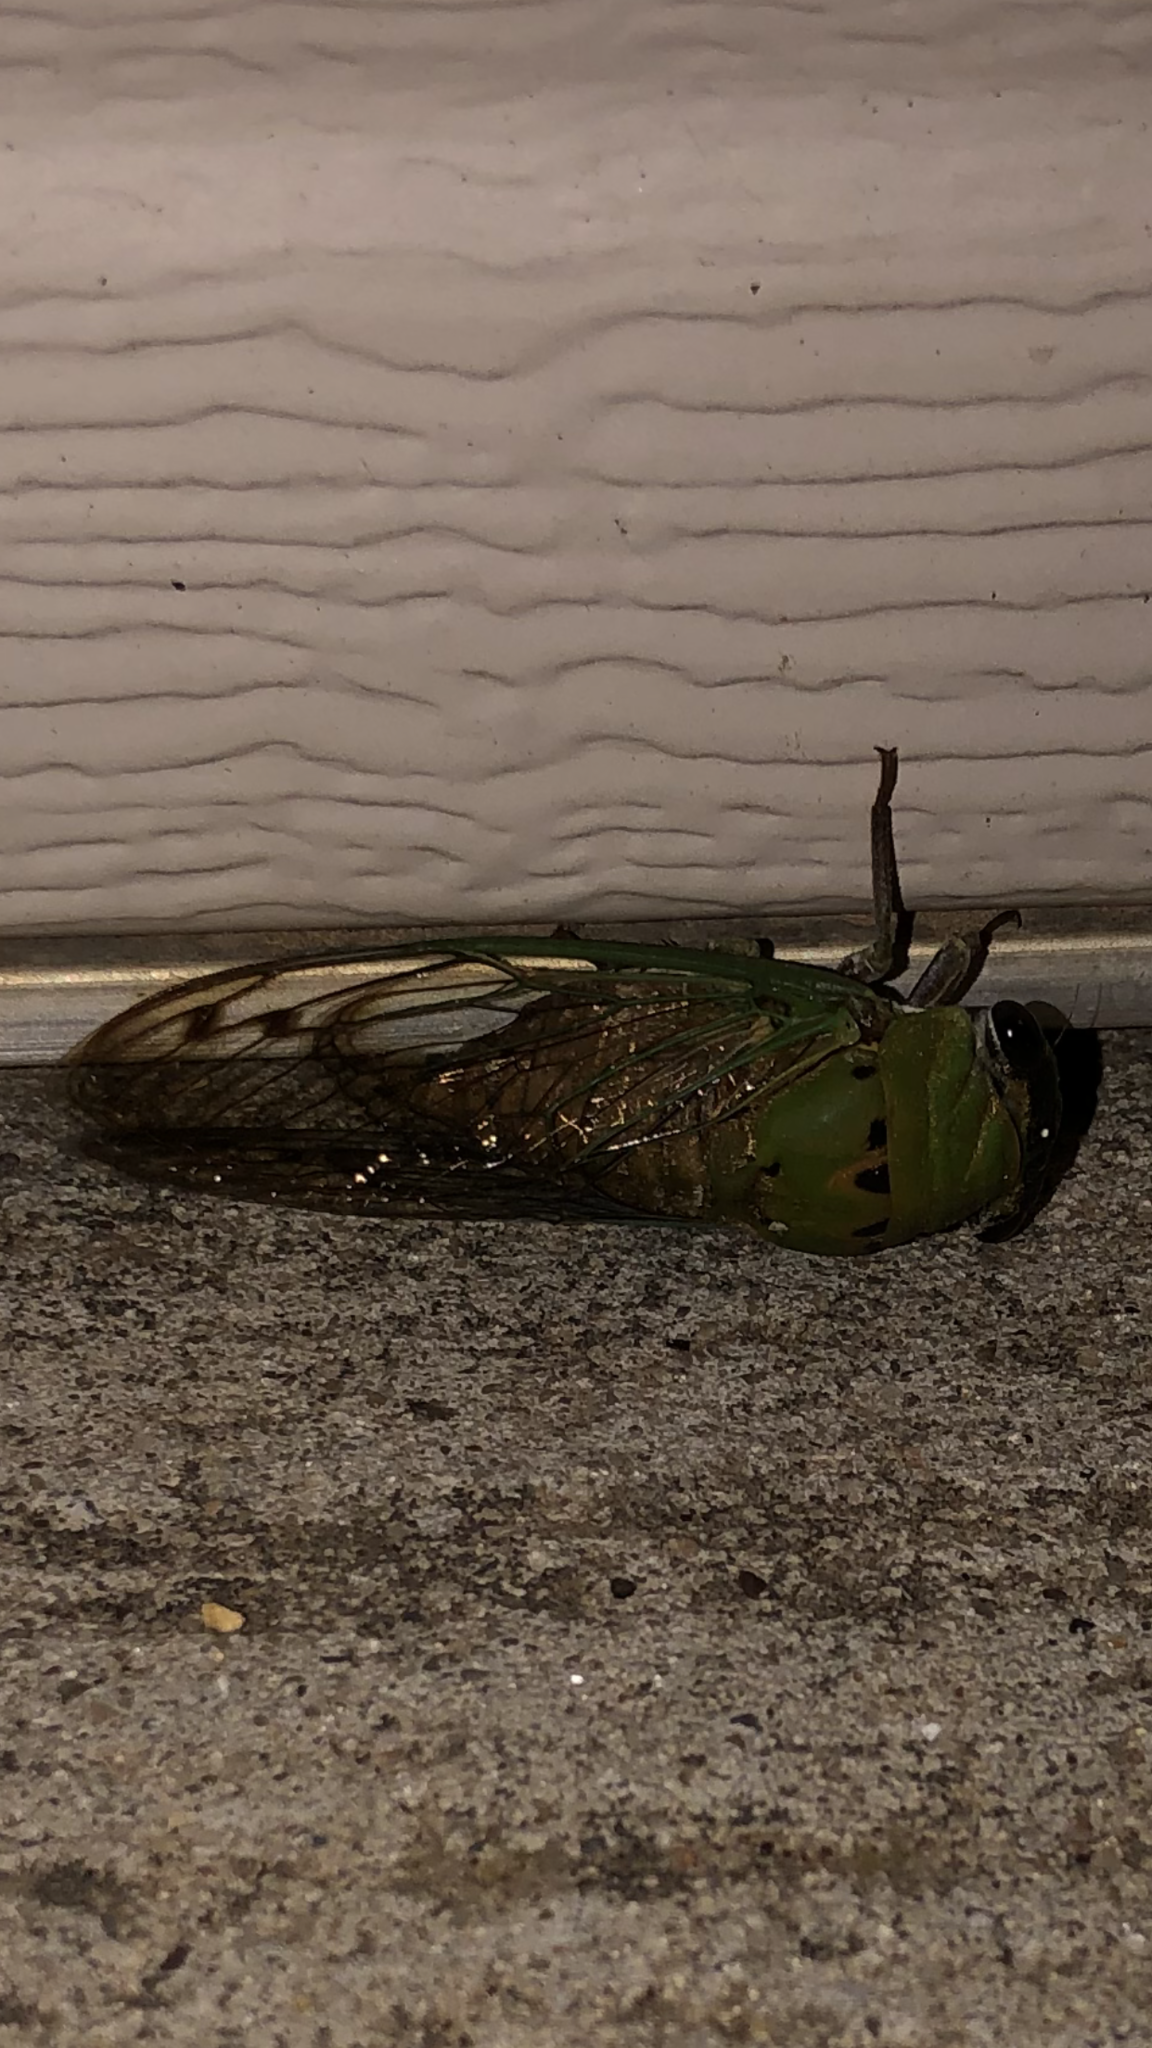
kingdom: Animalia
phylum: Arthropoda
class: Insecta
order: Hemiptera
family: Cicadidae
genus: Neotibicen
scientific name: Neotibicen superbus
